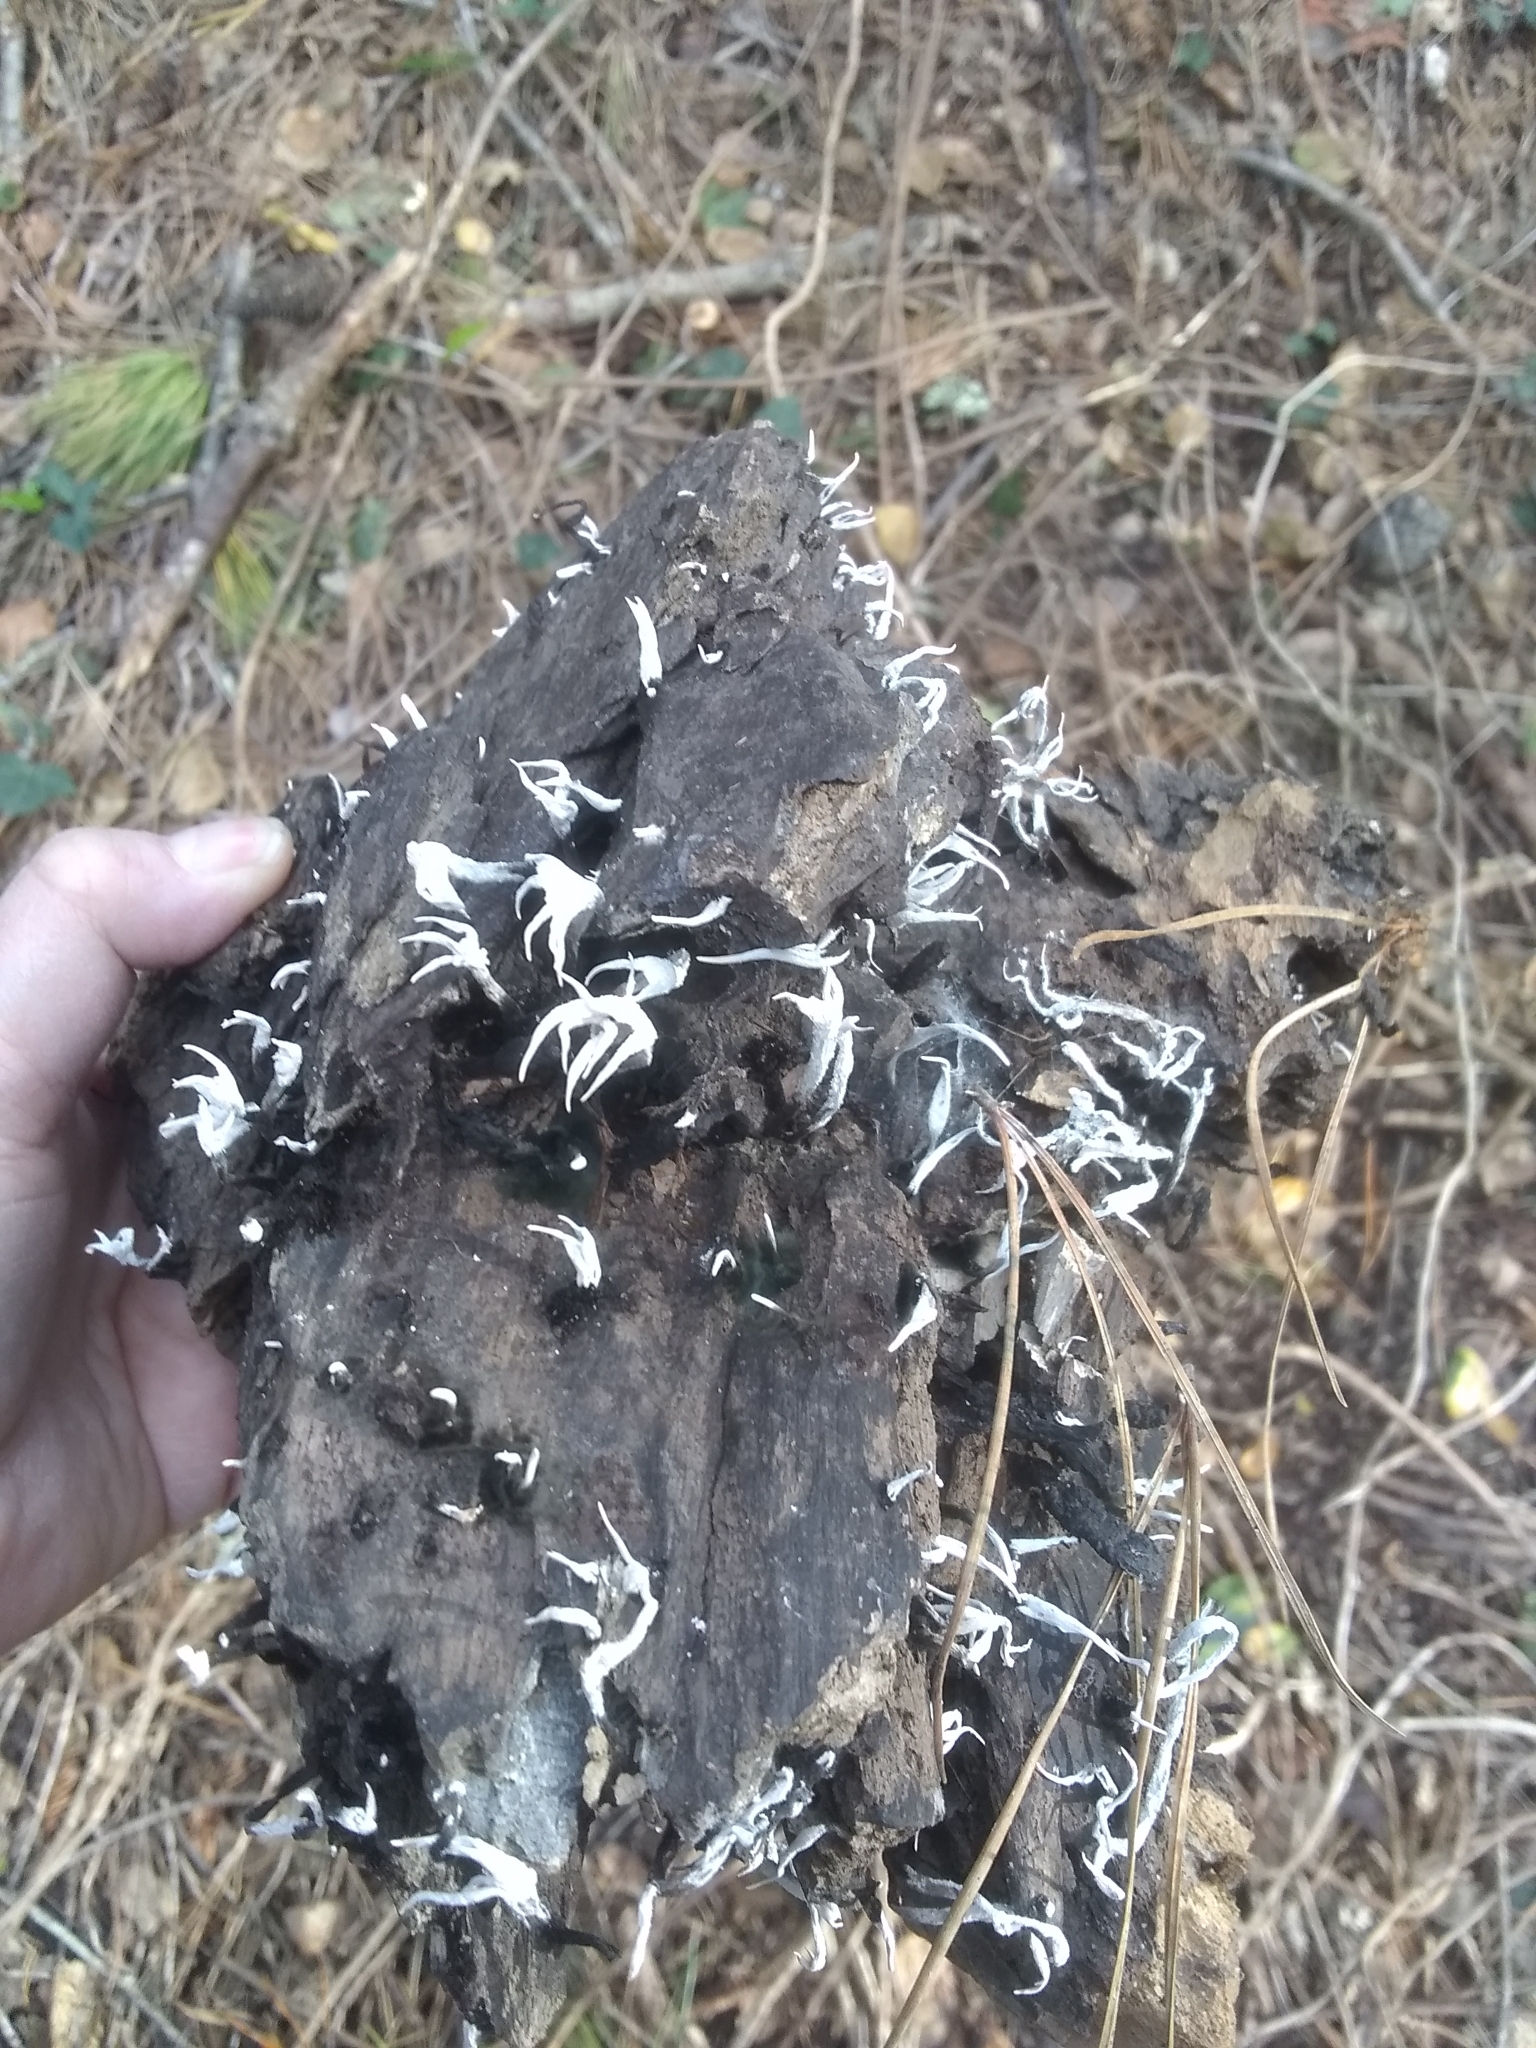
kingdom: Fungi
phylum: Ascomycota
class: Sordariomycetes
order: Xylariales
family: Xylariaceae
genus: Xylaria
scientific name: Xylaria hypoxylon
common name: Candle-snuff fungus
